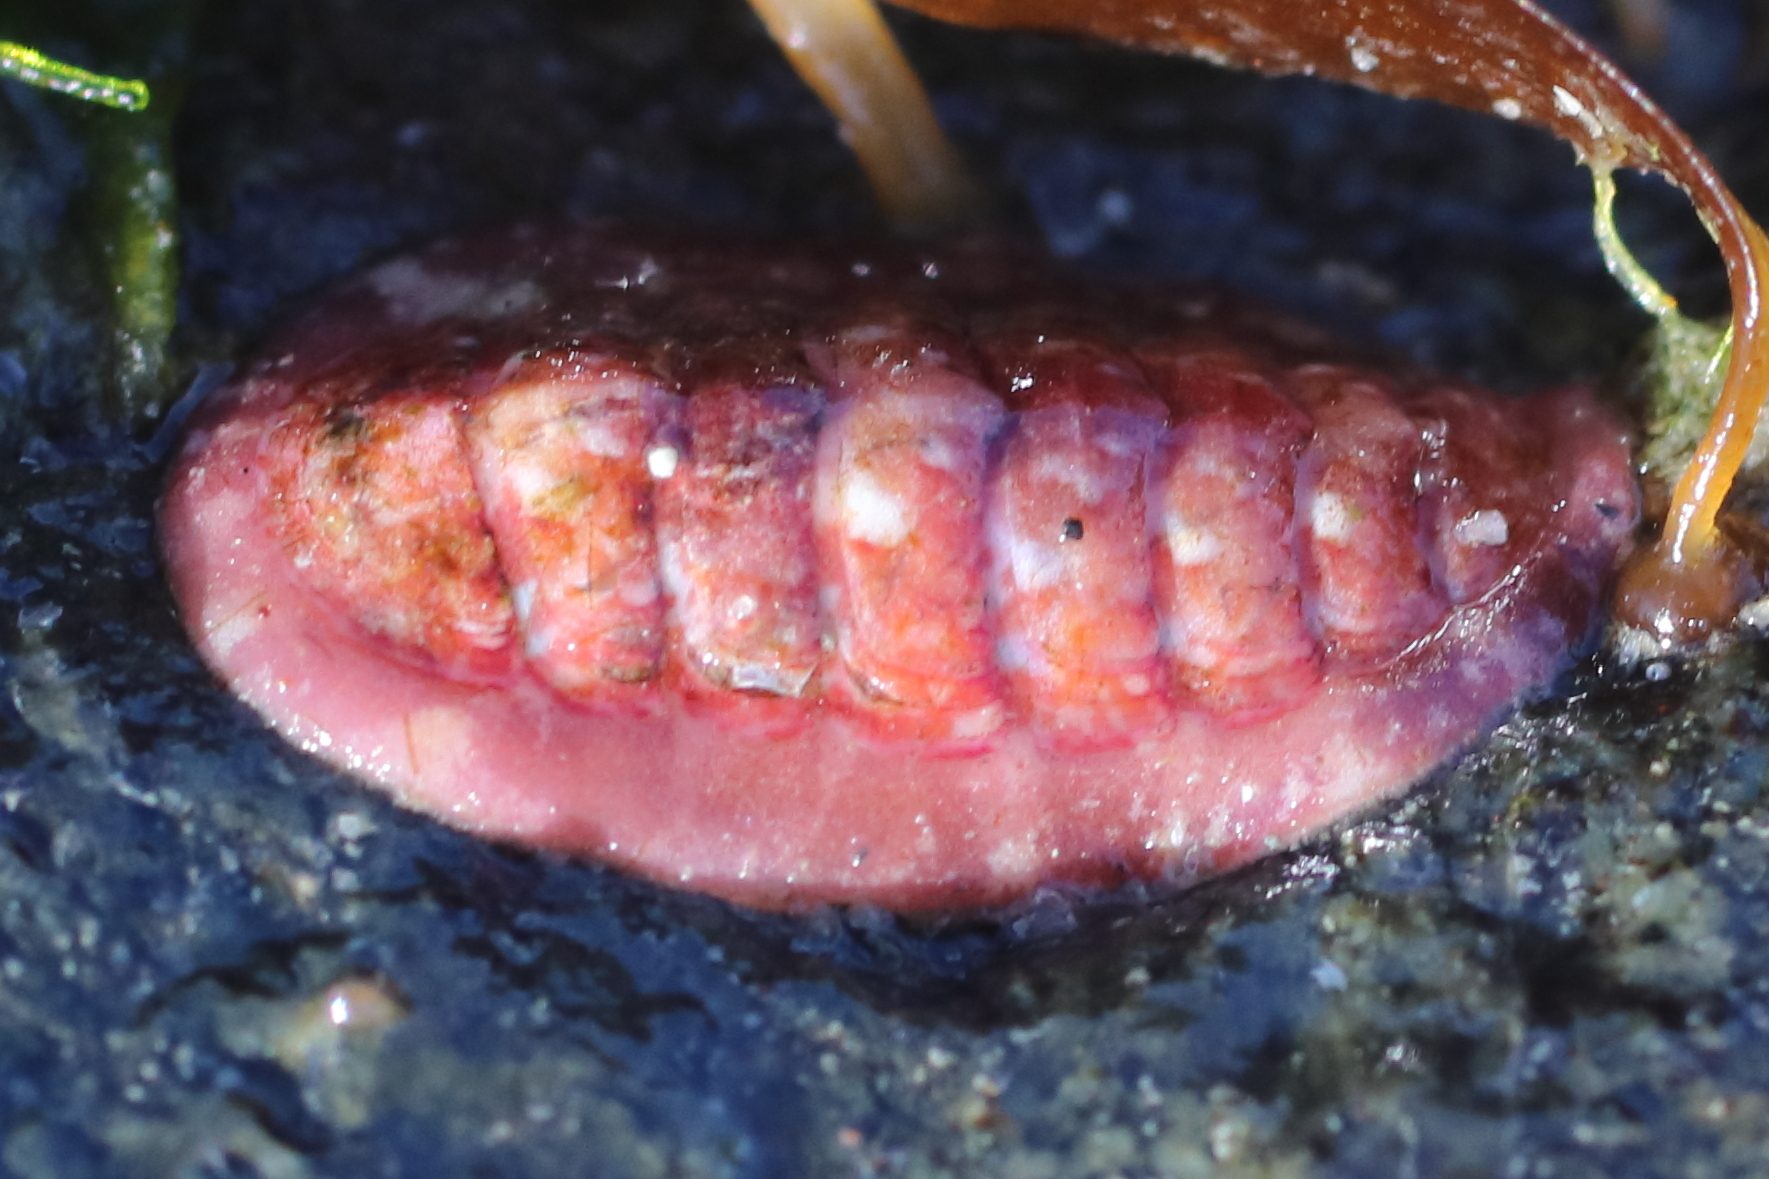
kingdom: Animalia
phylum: Mollusca
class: Polyplacophora
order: Chitonida
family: Tonicellidae
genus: Tonicella
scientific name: Tonicella venusta
